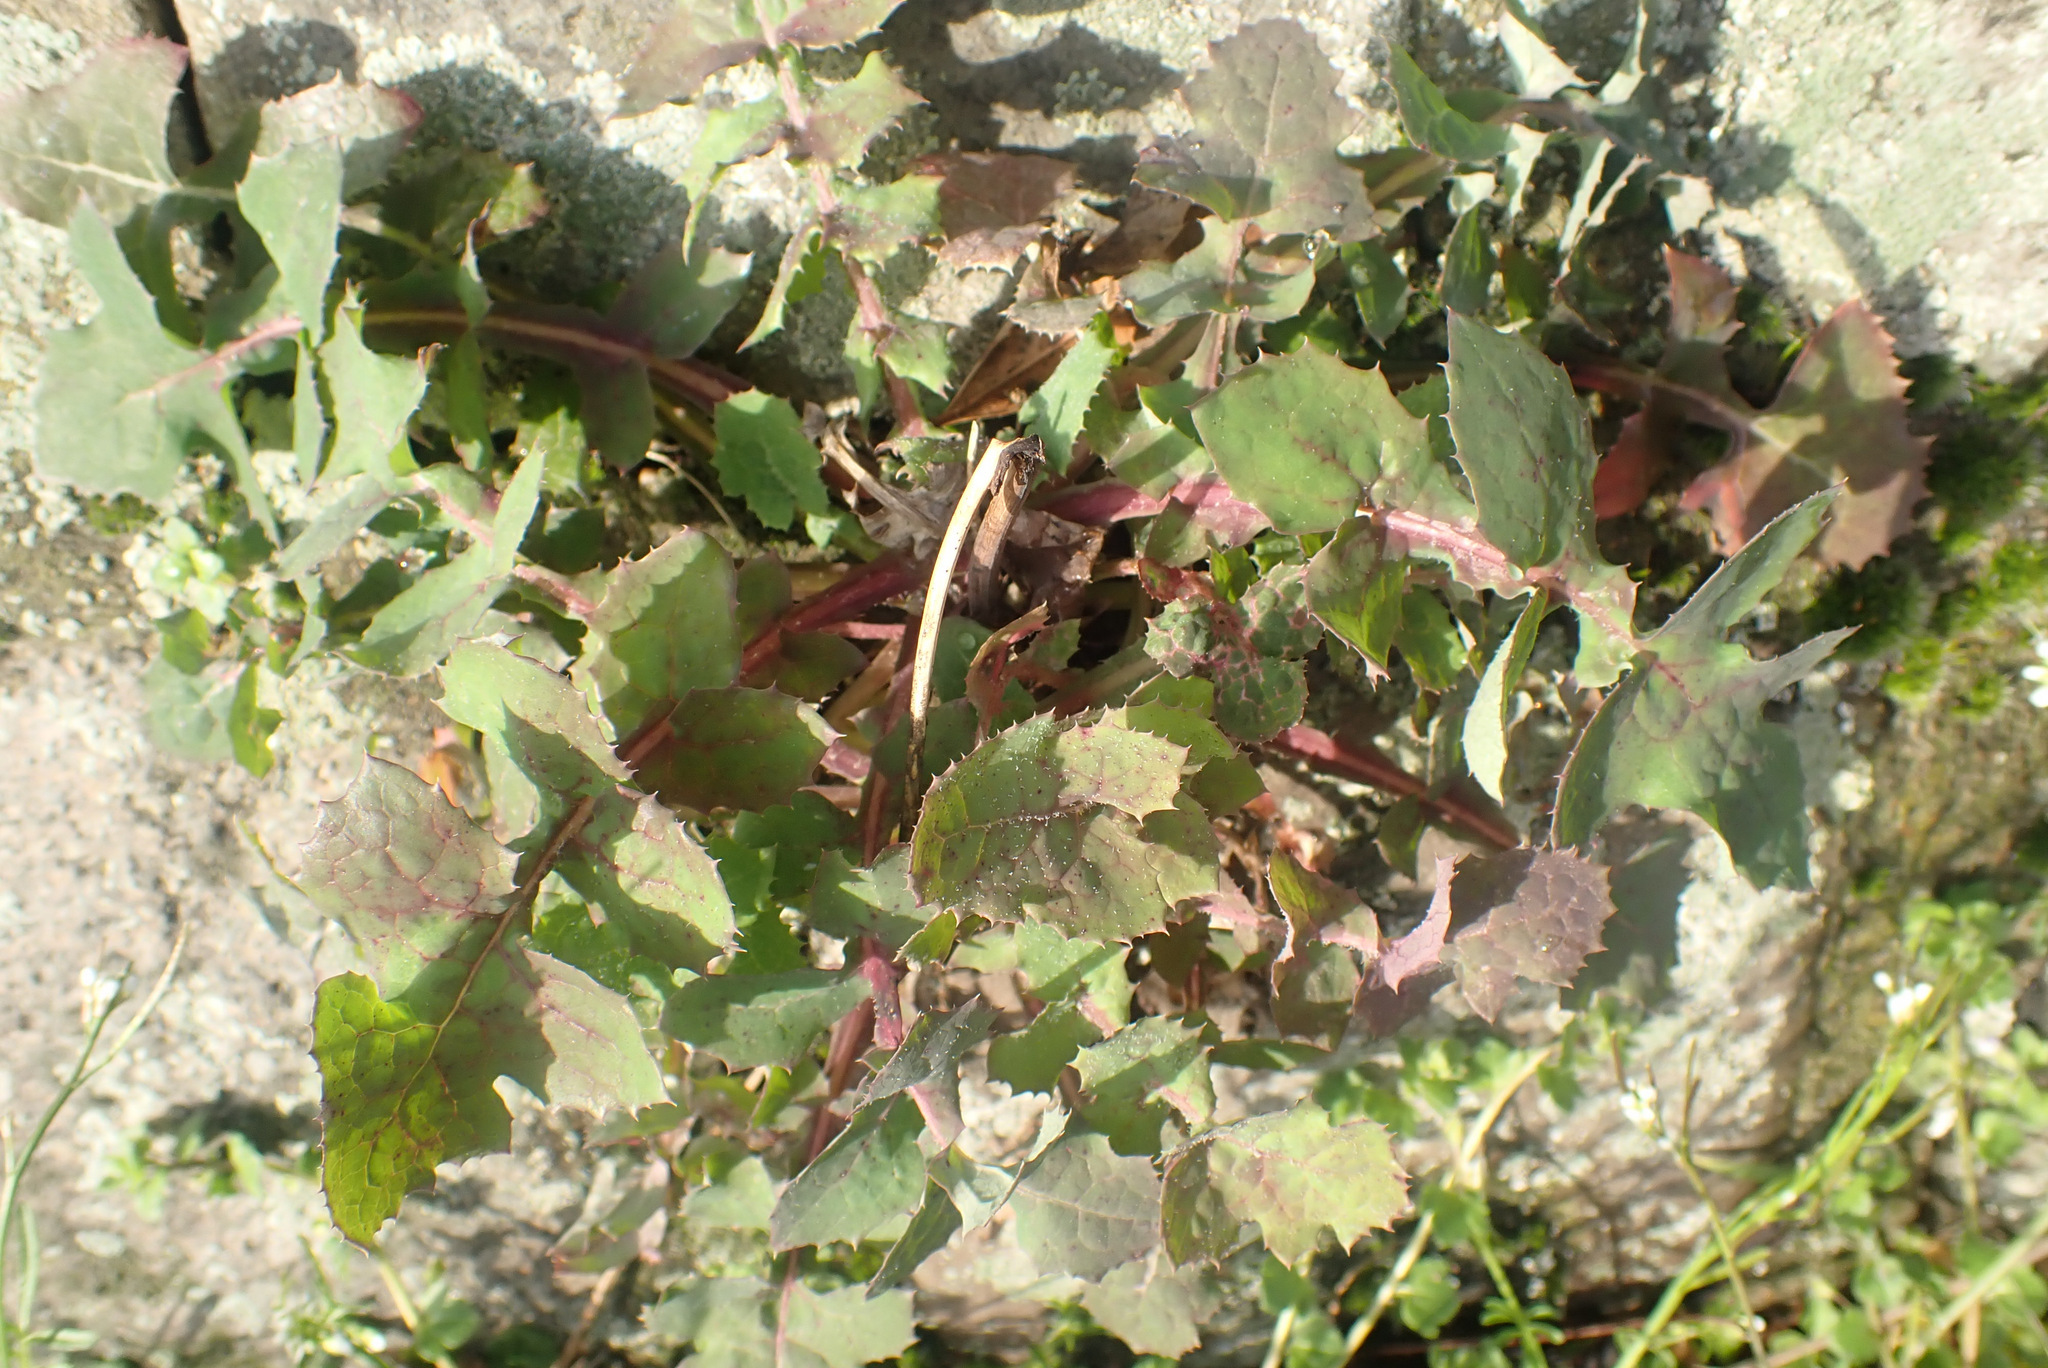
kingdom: Plantae
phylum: Tracheophyta
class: Magnoliopsida
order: Asterales
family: Asteraceae
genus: Sonchus
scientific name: Sonchus oleraceus
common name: Common sowthistle
